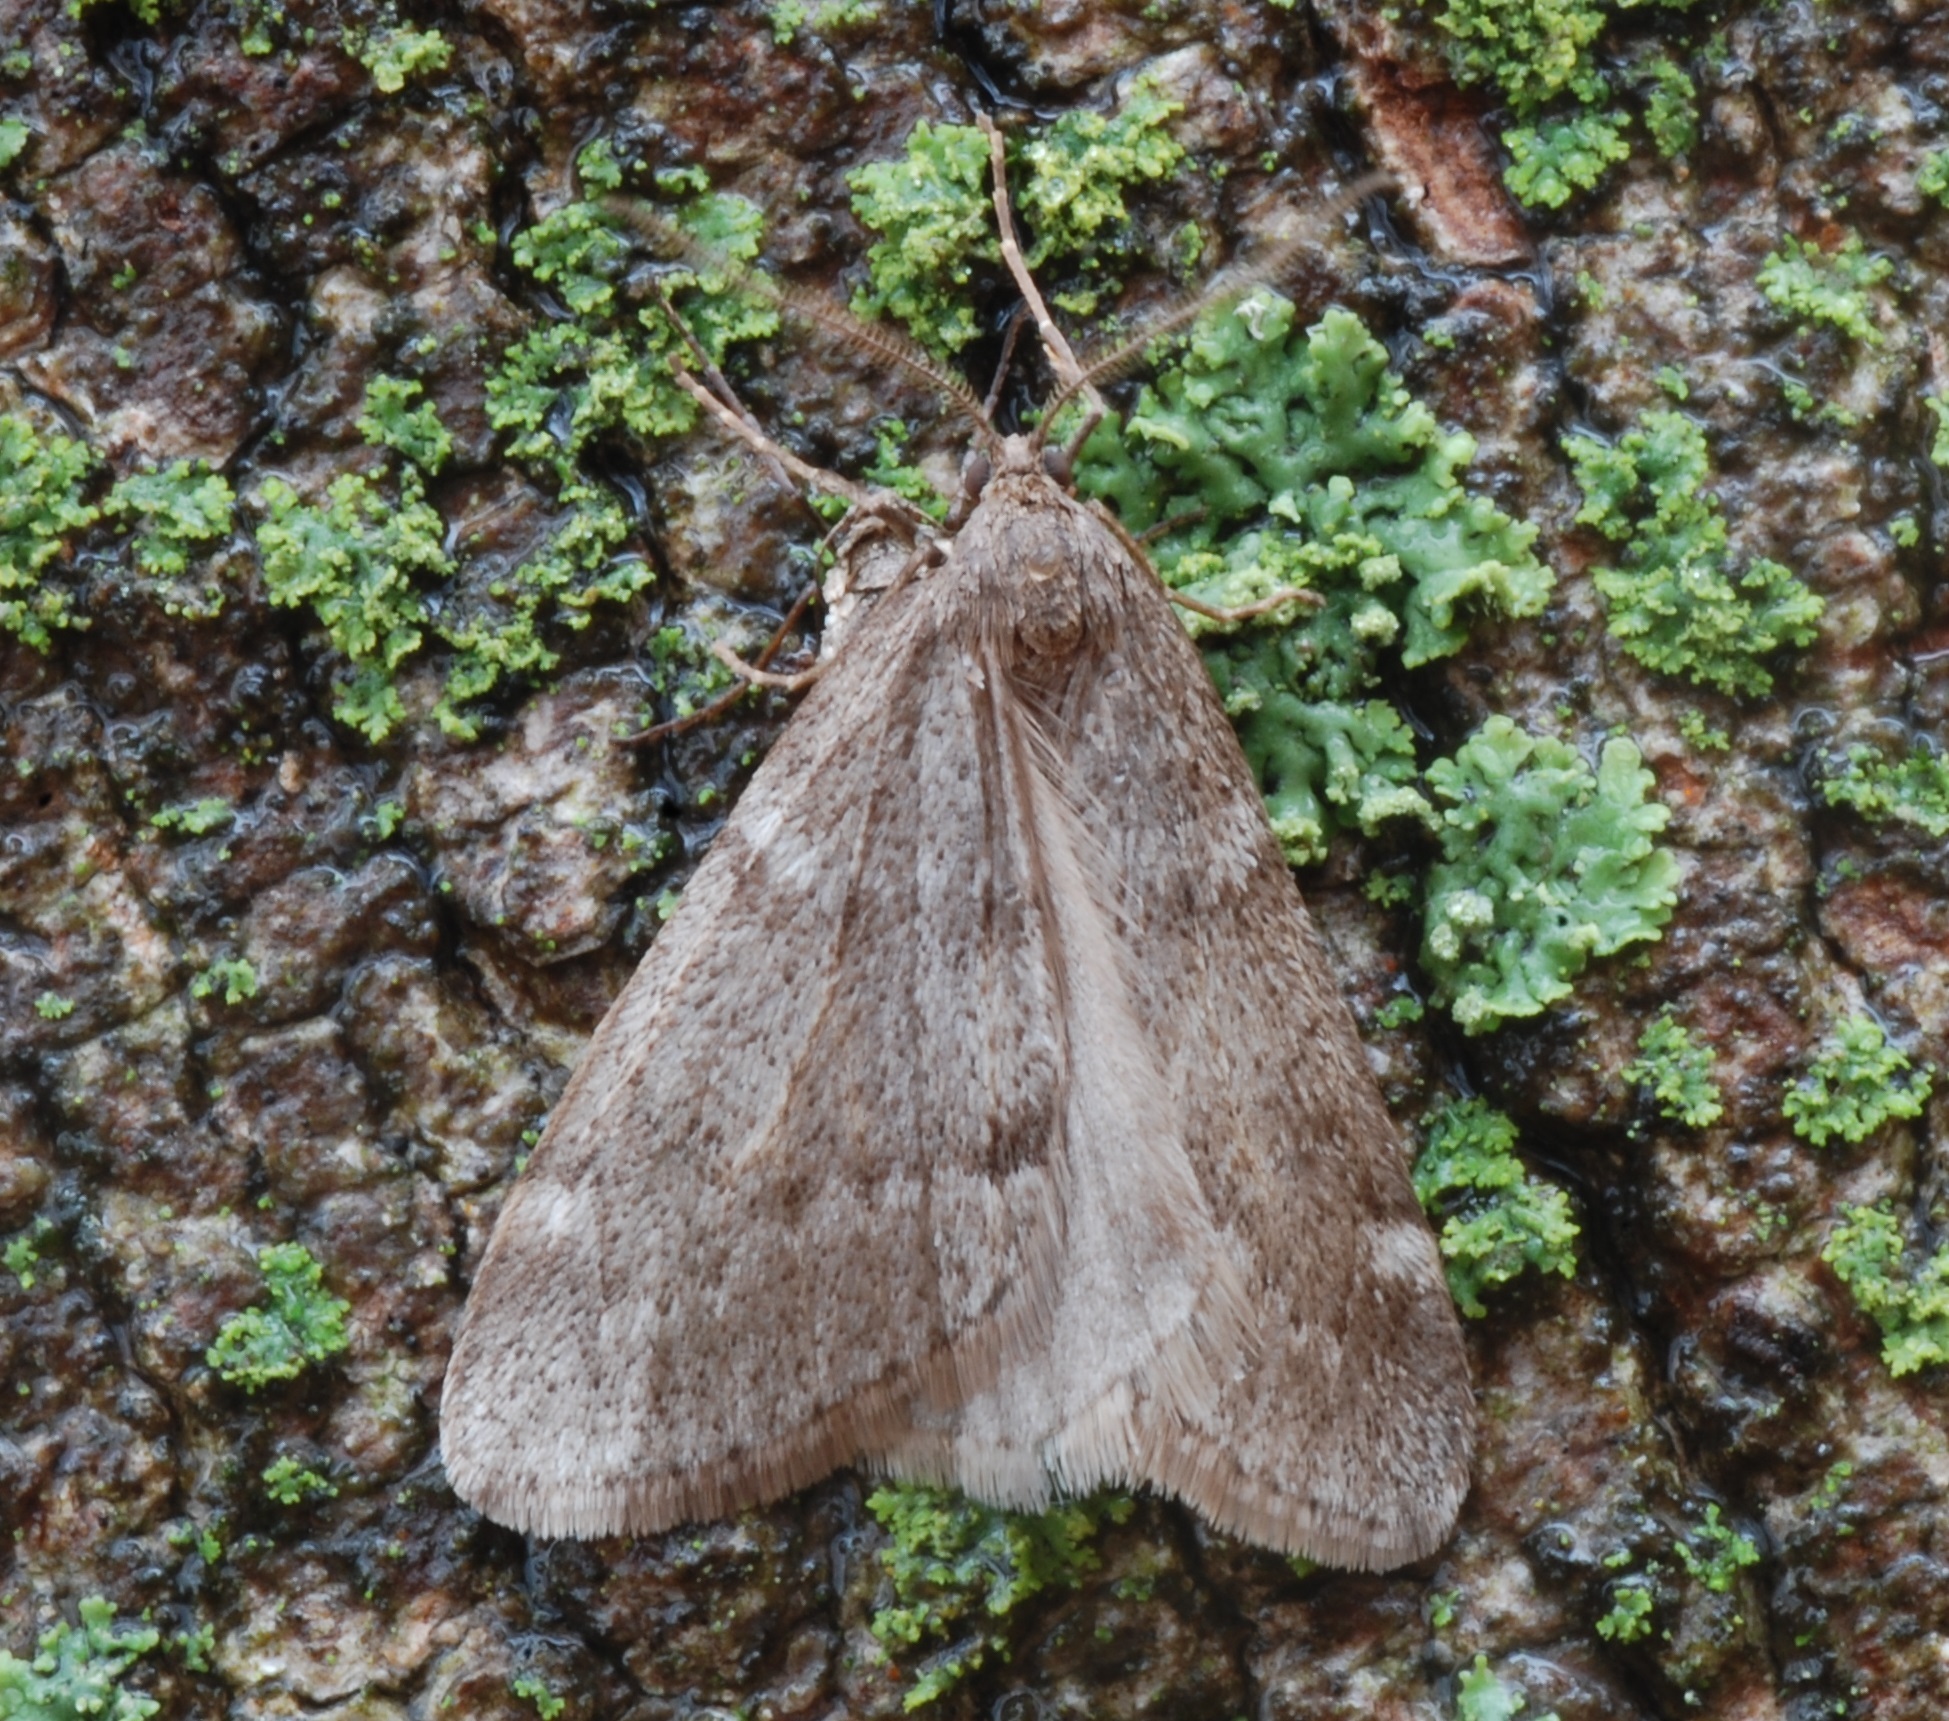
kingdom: Animalia
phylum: Arthropoda
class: Insecta
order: Lepidoptera
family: Geometridae
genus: Alsophila
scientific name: Alsophila pometaria
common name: Fall cankerworm
